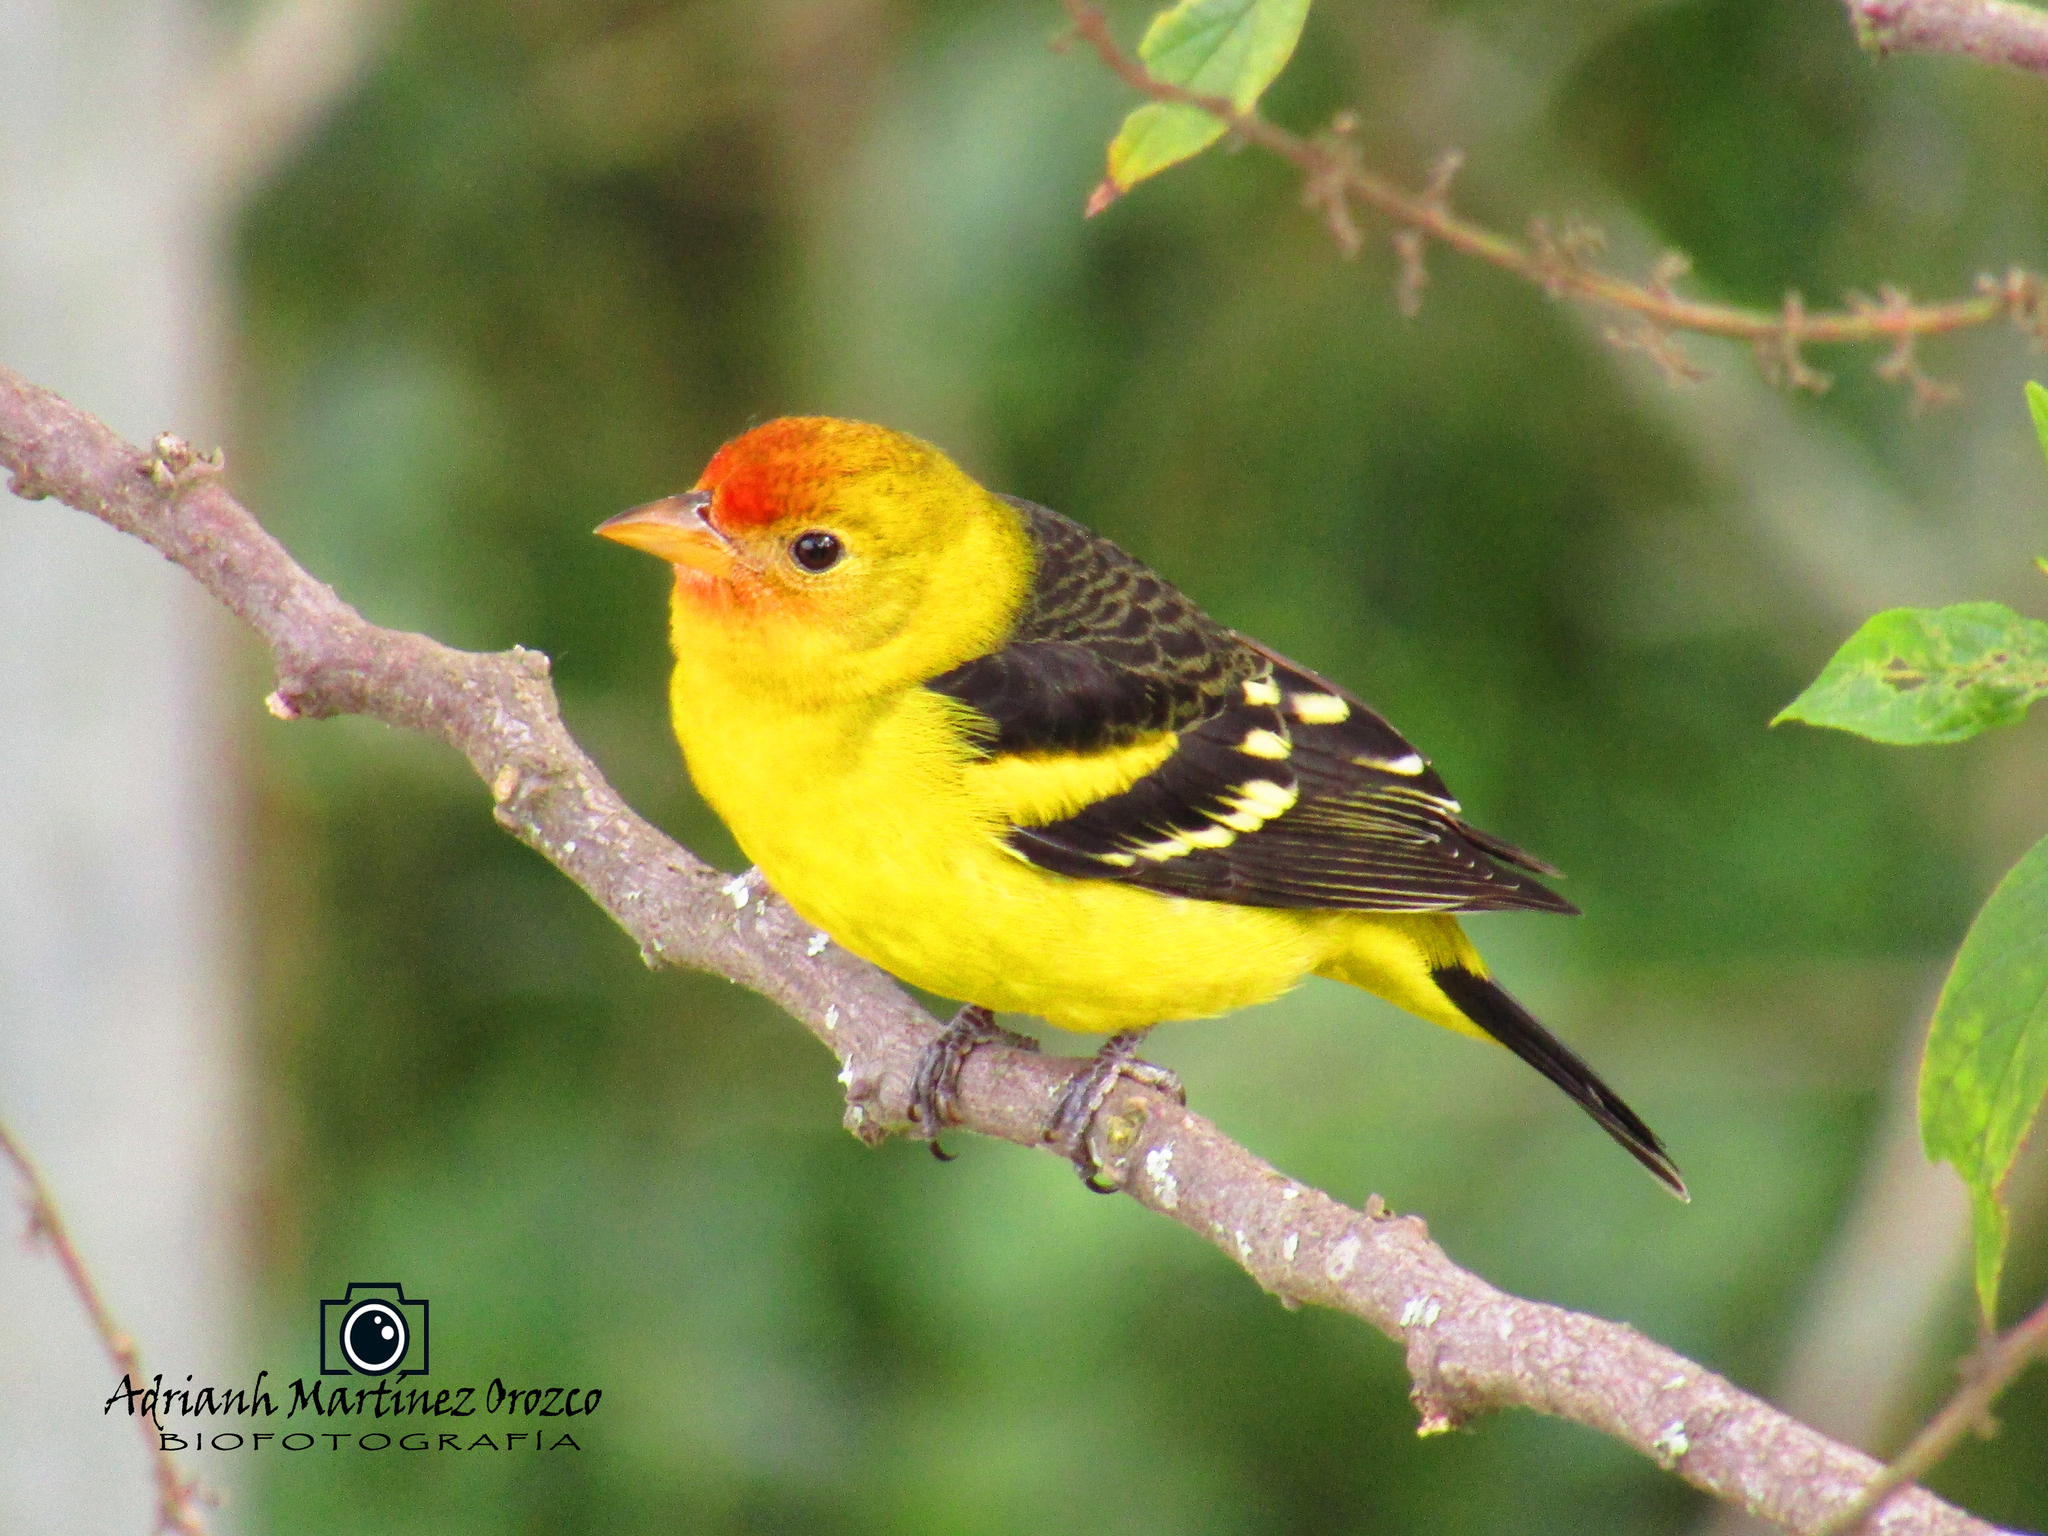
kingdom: Animalia
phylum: Chordata
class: Aves
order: Passeriformes
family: Cardinalidae
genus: Piranga
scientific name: Piranga ludoviciana
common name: Western tanager
